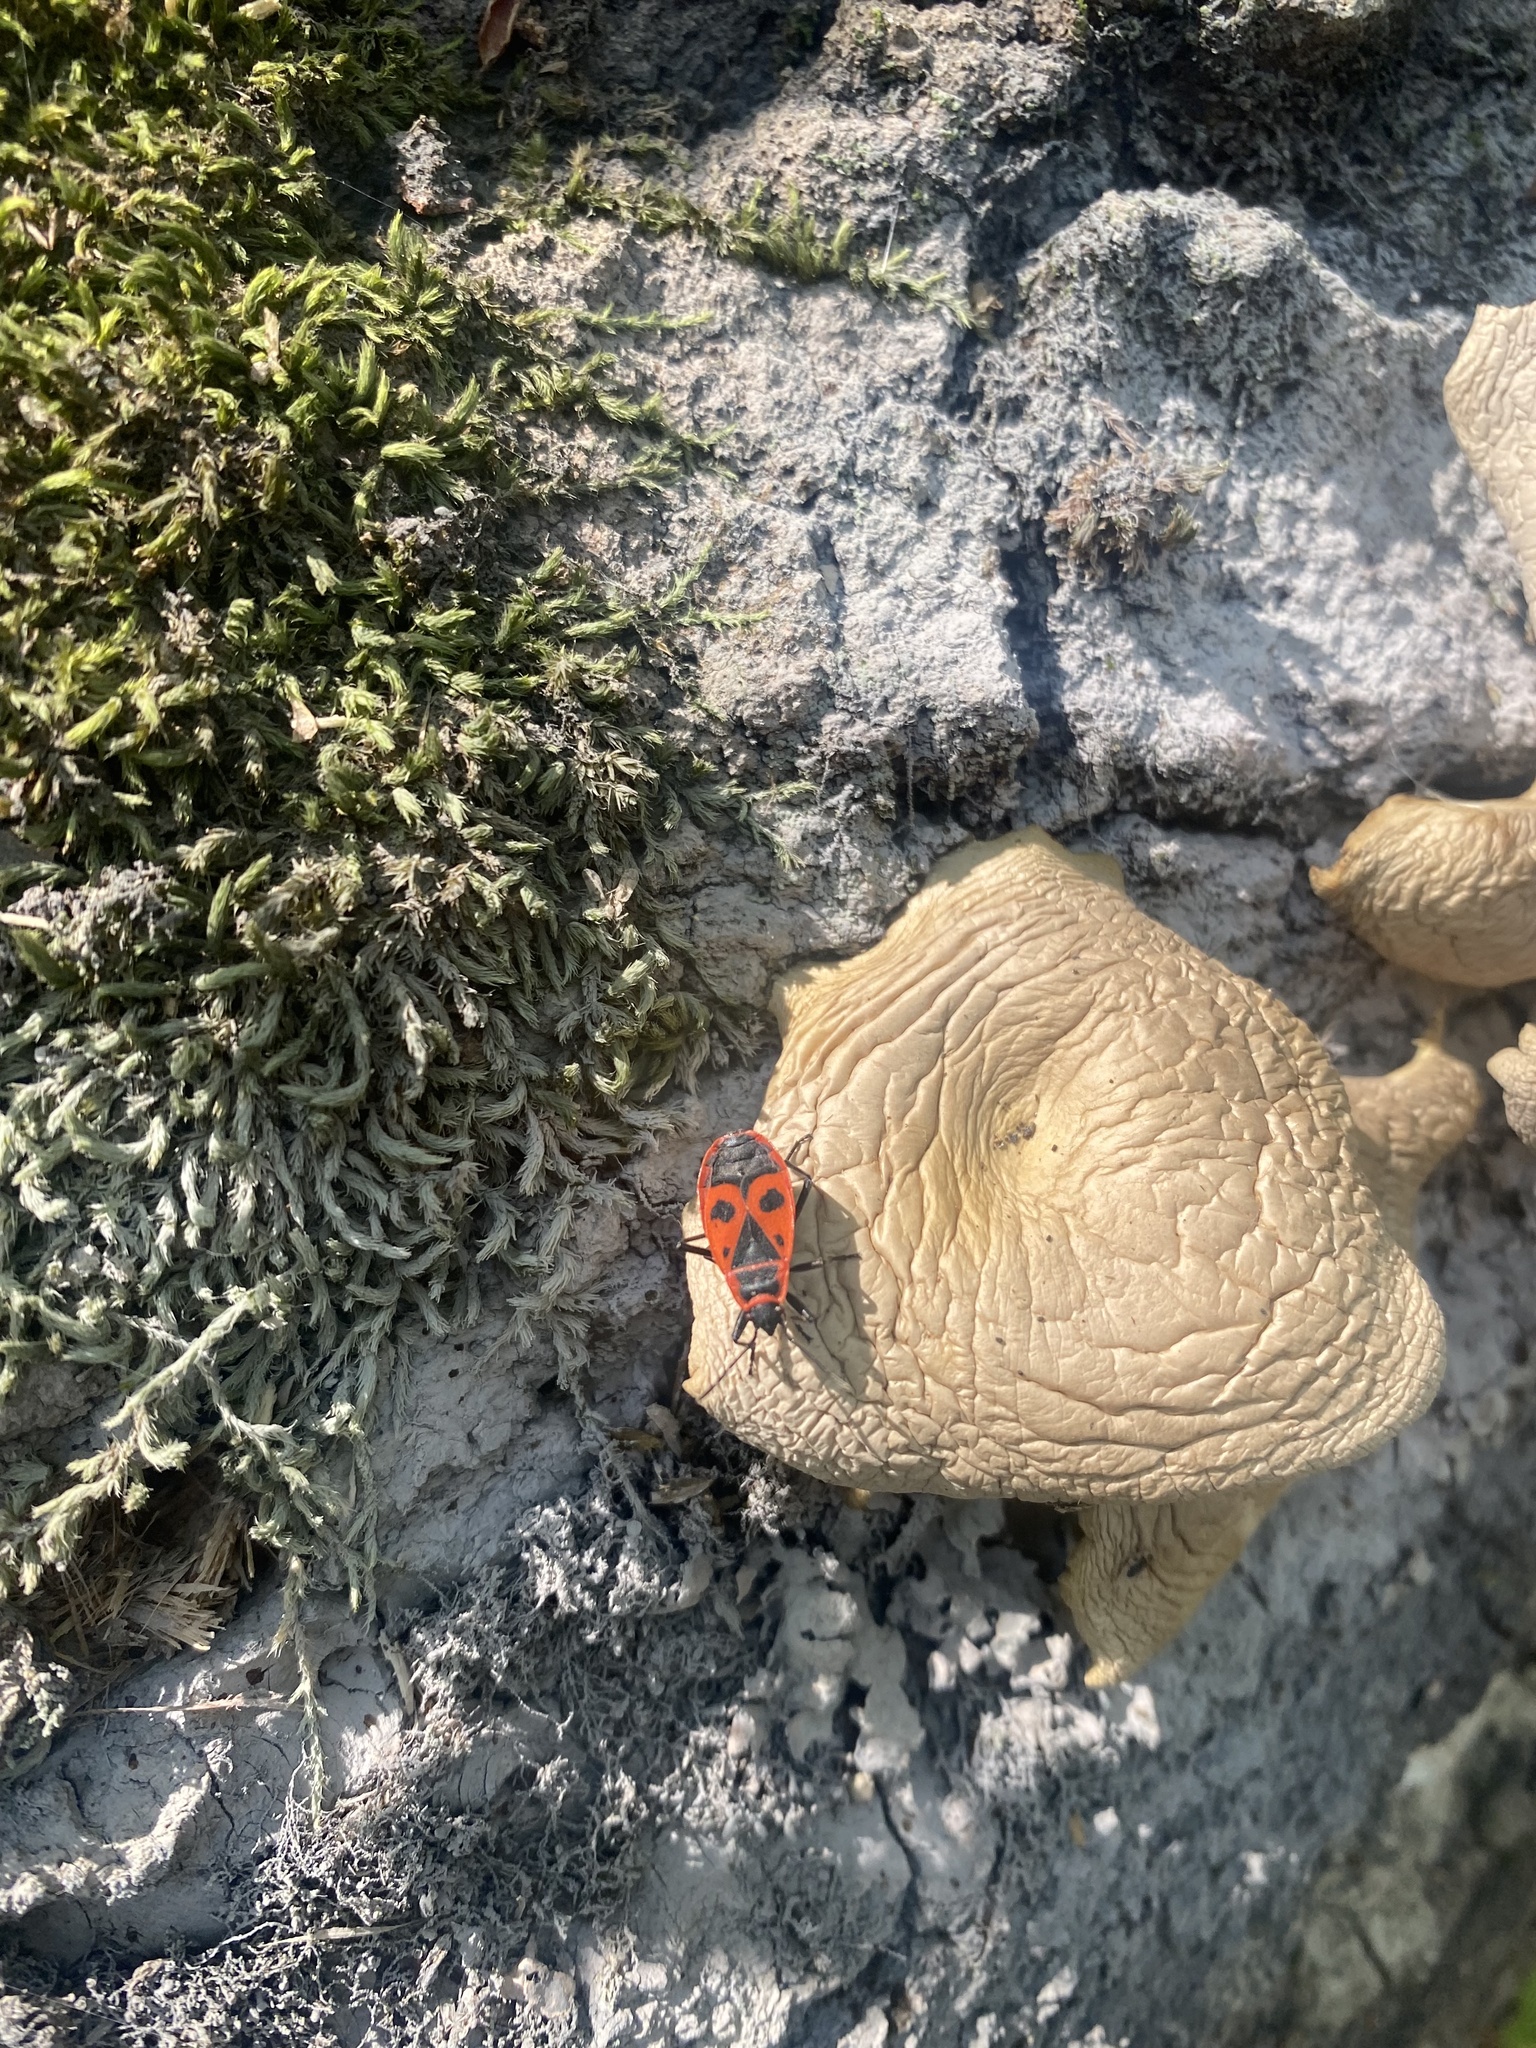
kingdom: Animalia
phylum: Arthropoda
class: Insecta
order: Hemiptera
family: Pyrrhocoridae
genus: Pyrrhocoris
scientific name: Pyrrhocoris apterus
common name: Firebug
